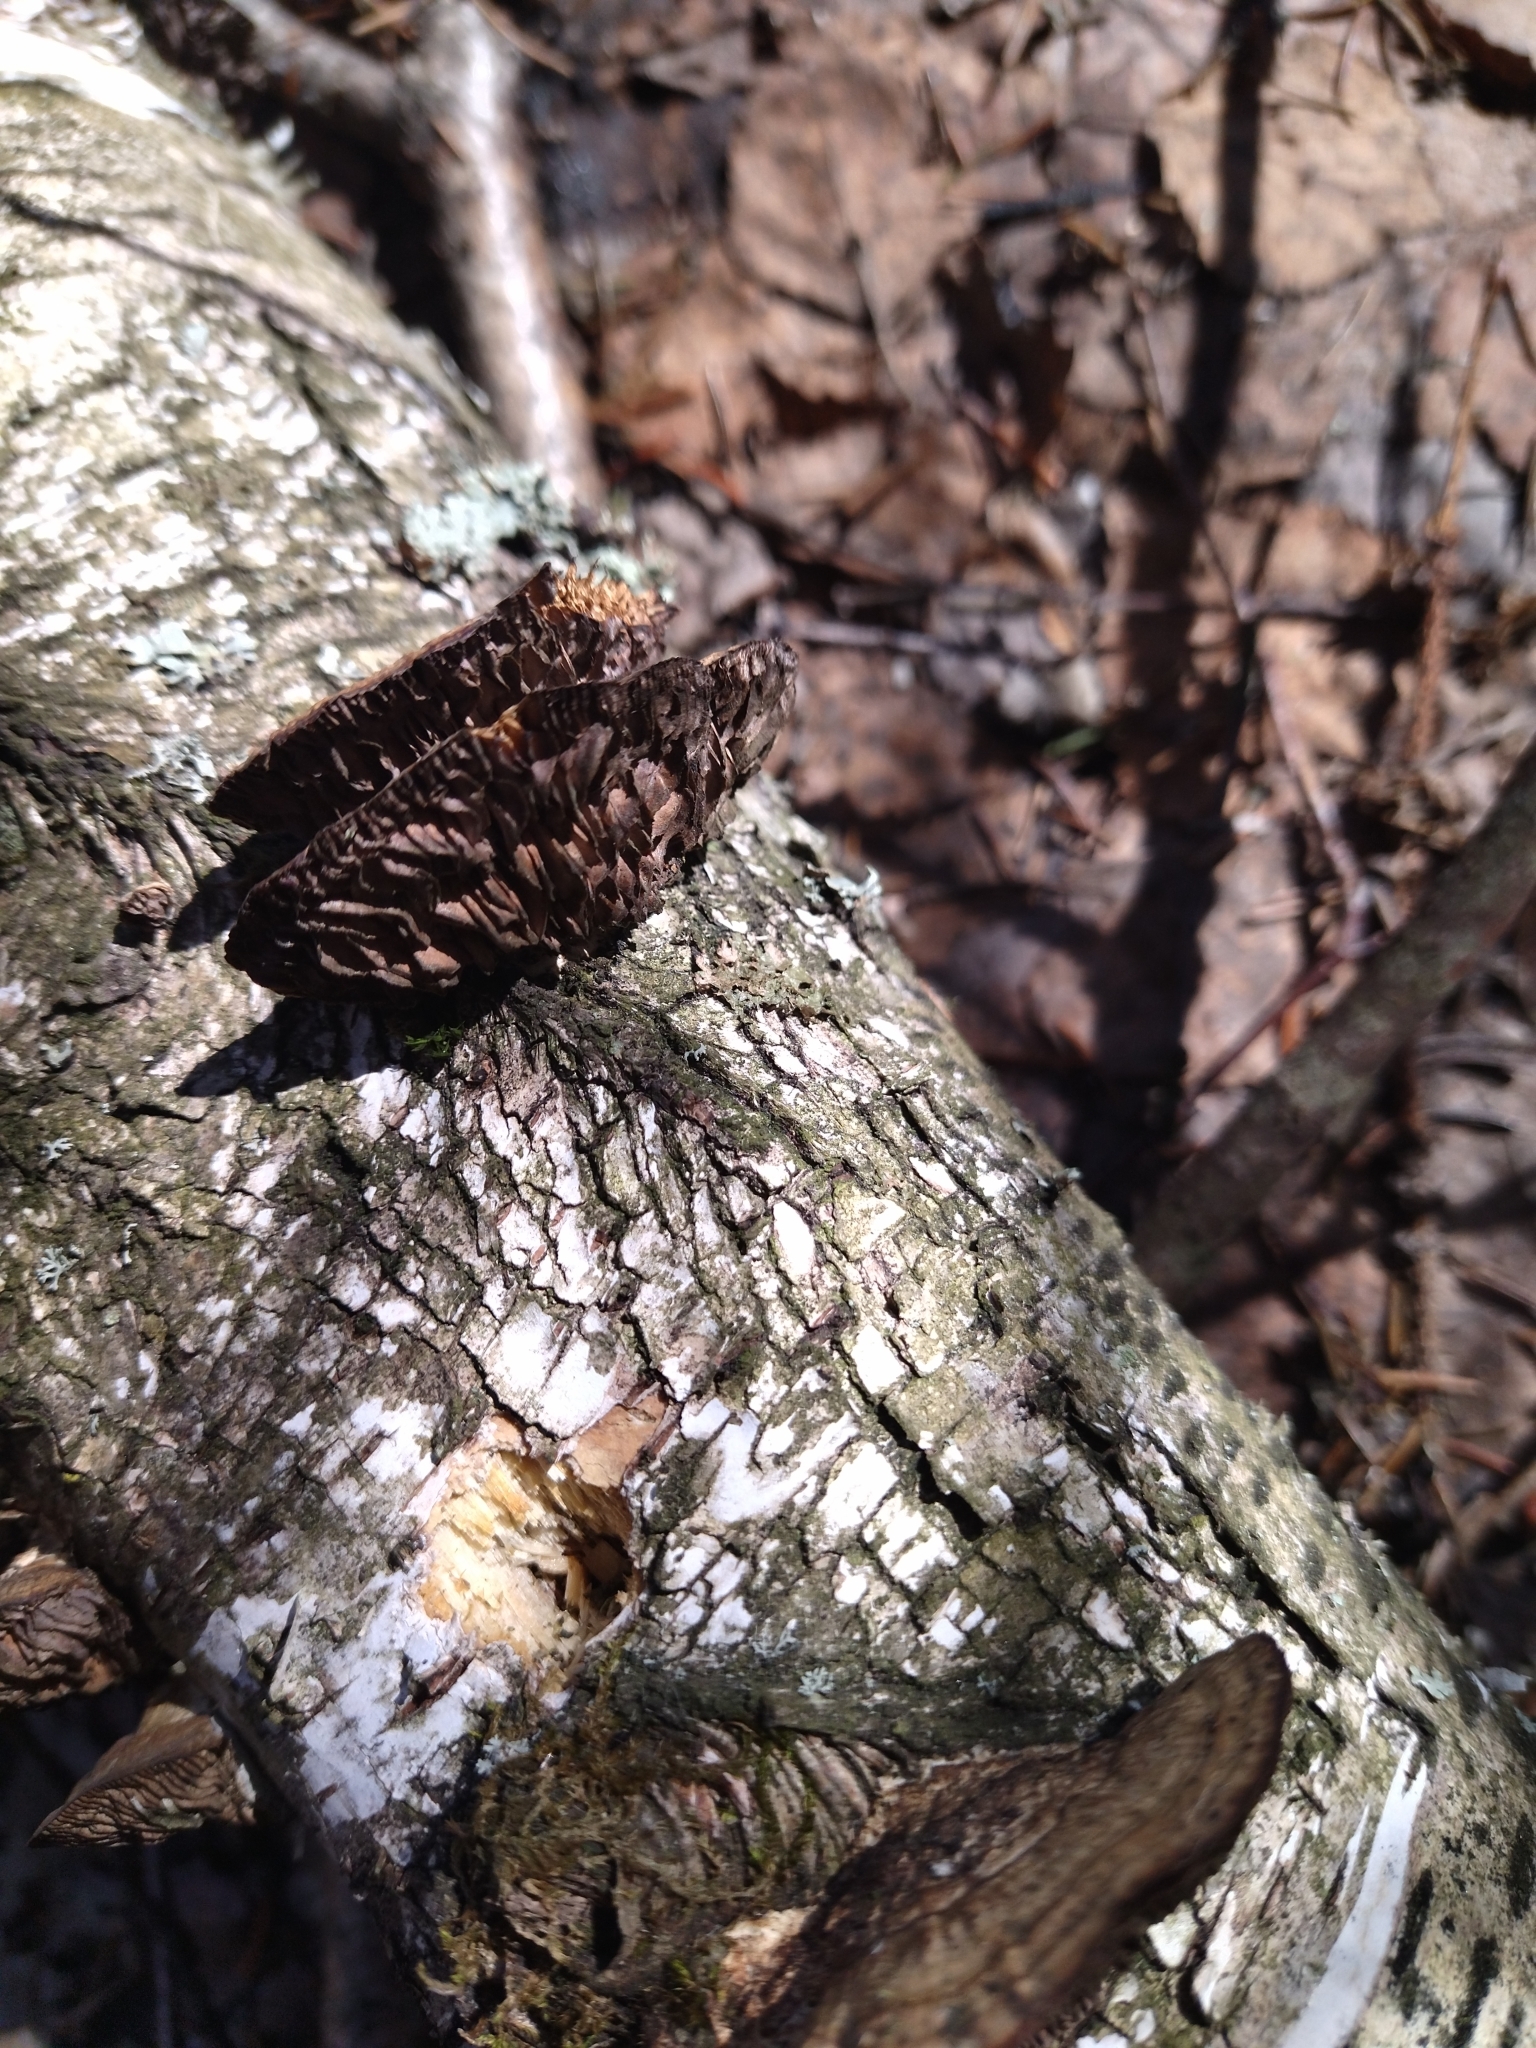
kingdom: Fungi
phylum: Basidiomycota
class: Agaricomycetes
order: Polyporales
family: Polyporaceae
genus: Daedaleopsis
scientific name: Daedaleopsis confragosa
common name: Blushing bracket
